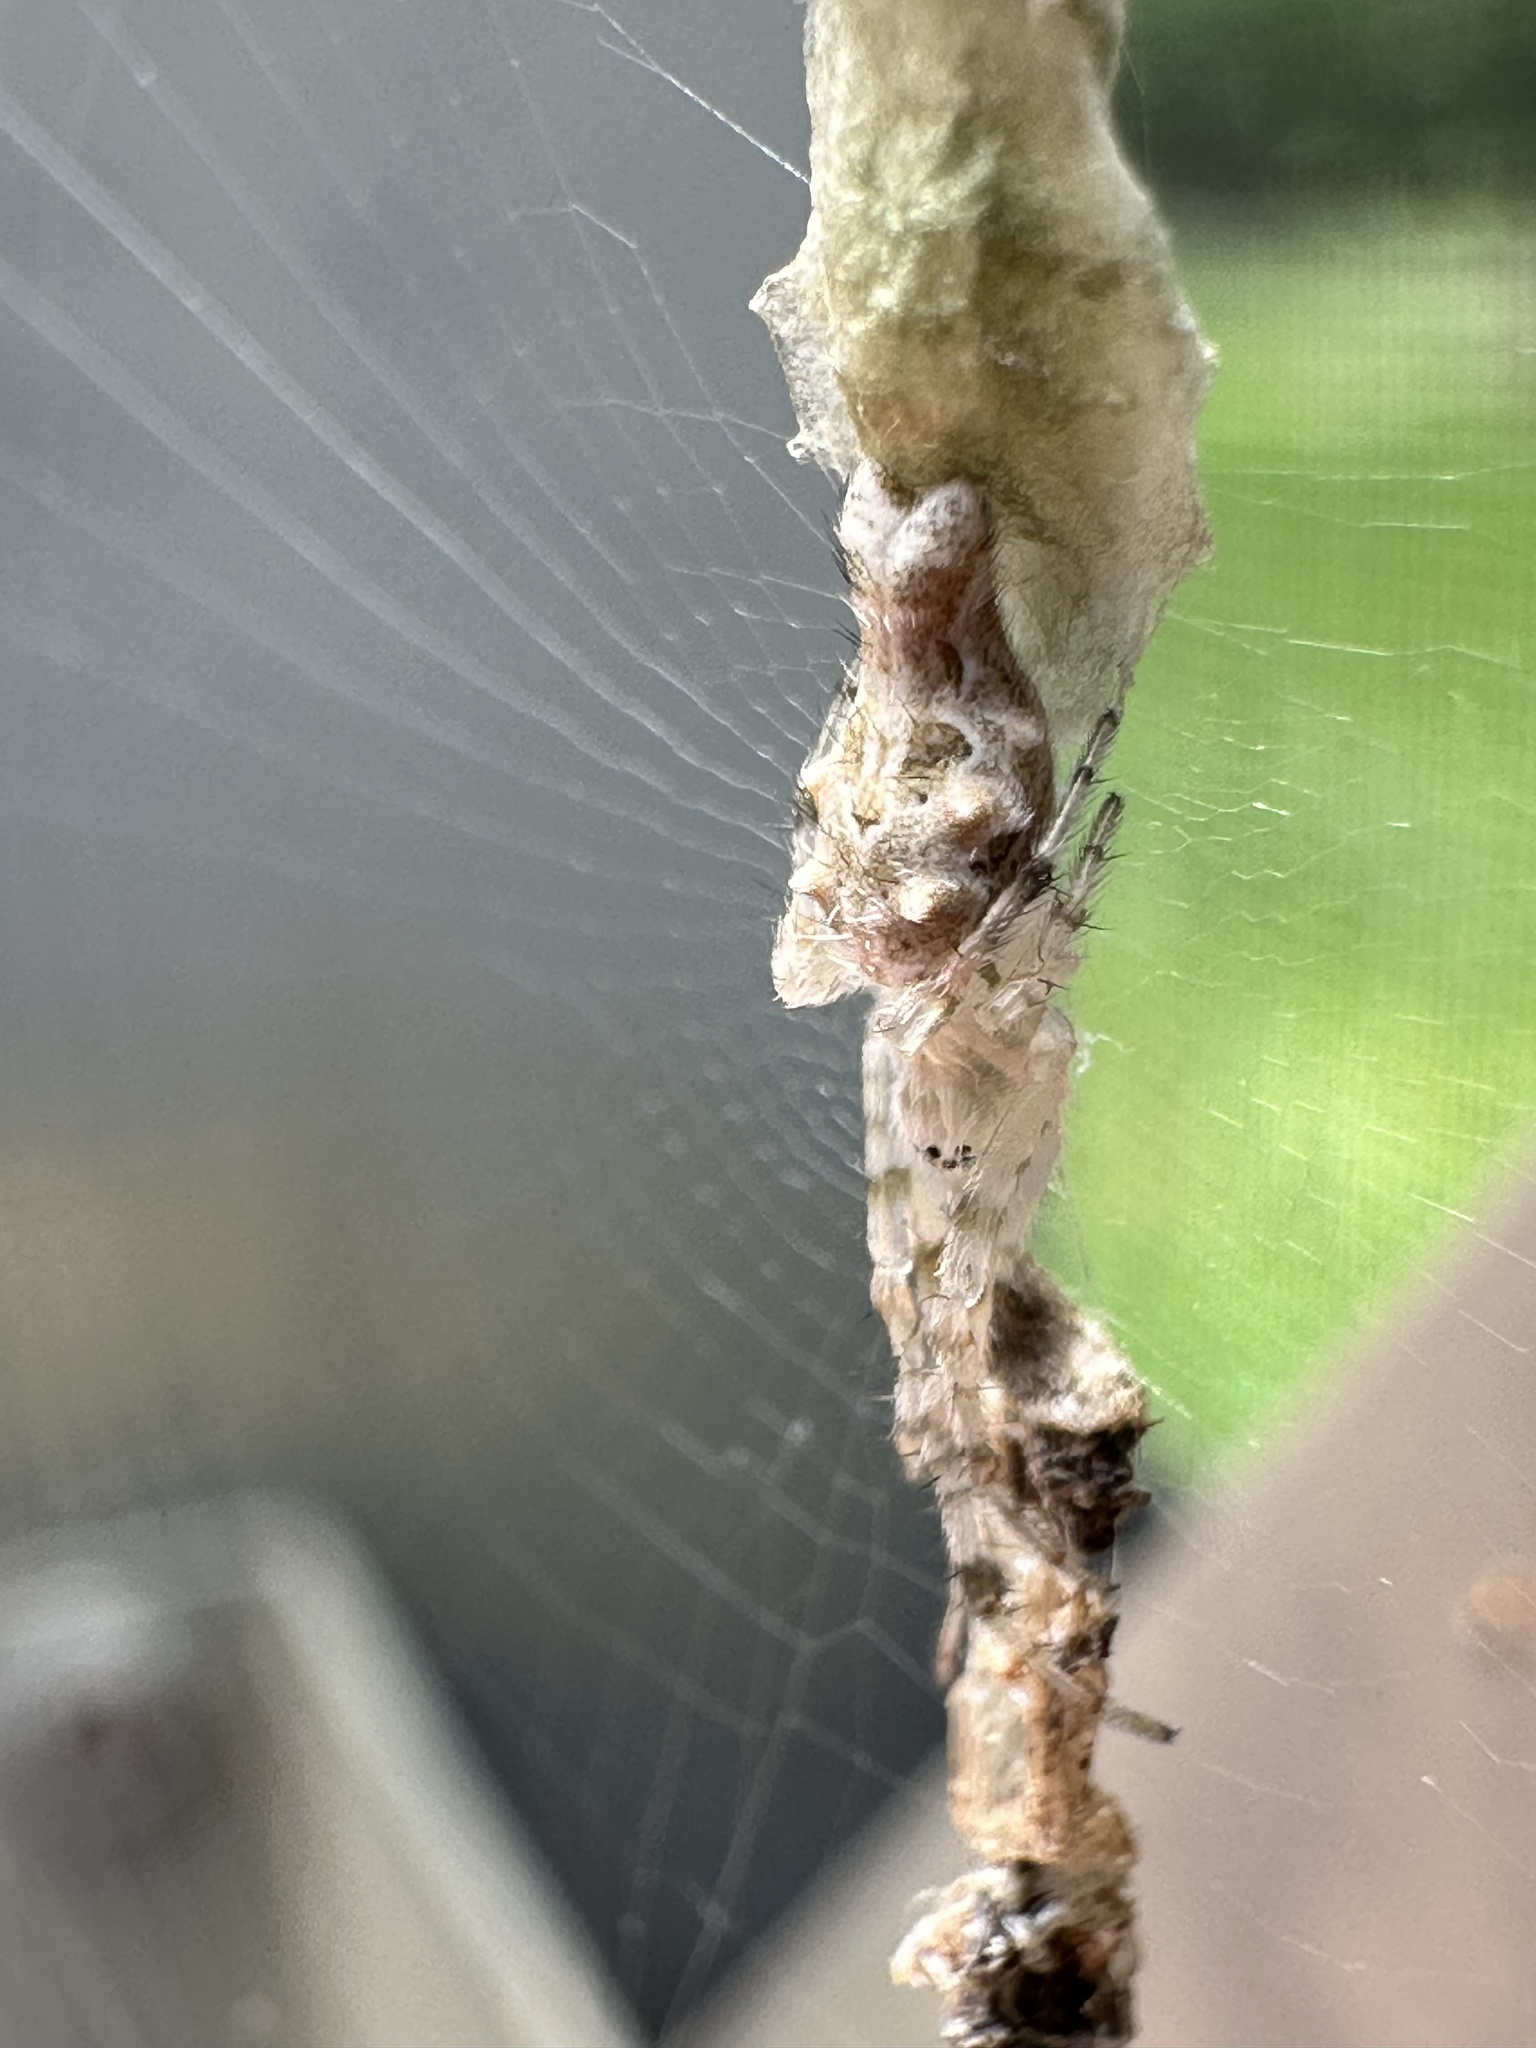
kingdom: Animalia
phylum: Arthropoda
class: Arachnida
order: Araneae
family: Araneidae
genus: Allocyclosa
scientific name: Allocyclosa bifurca
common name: Orb weavers
